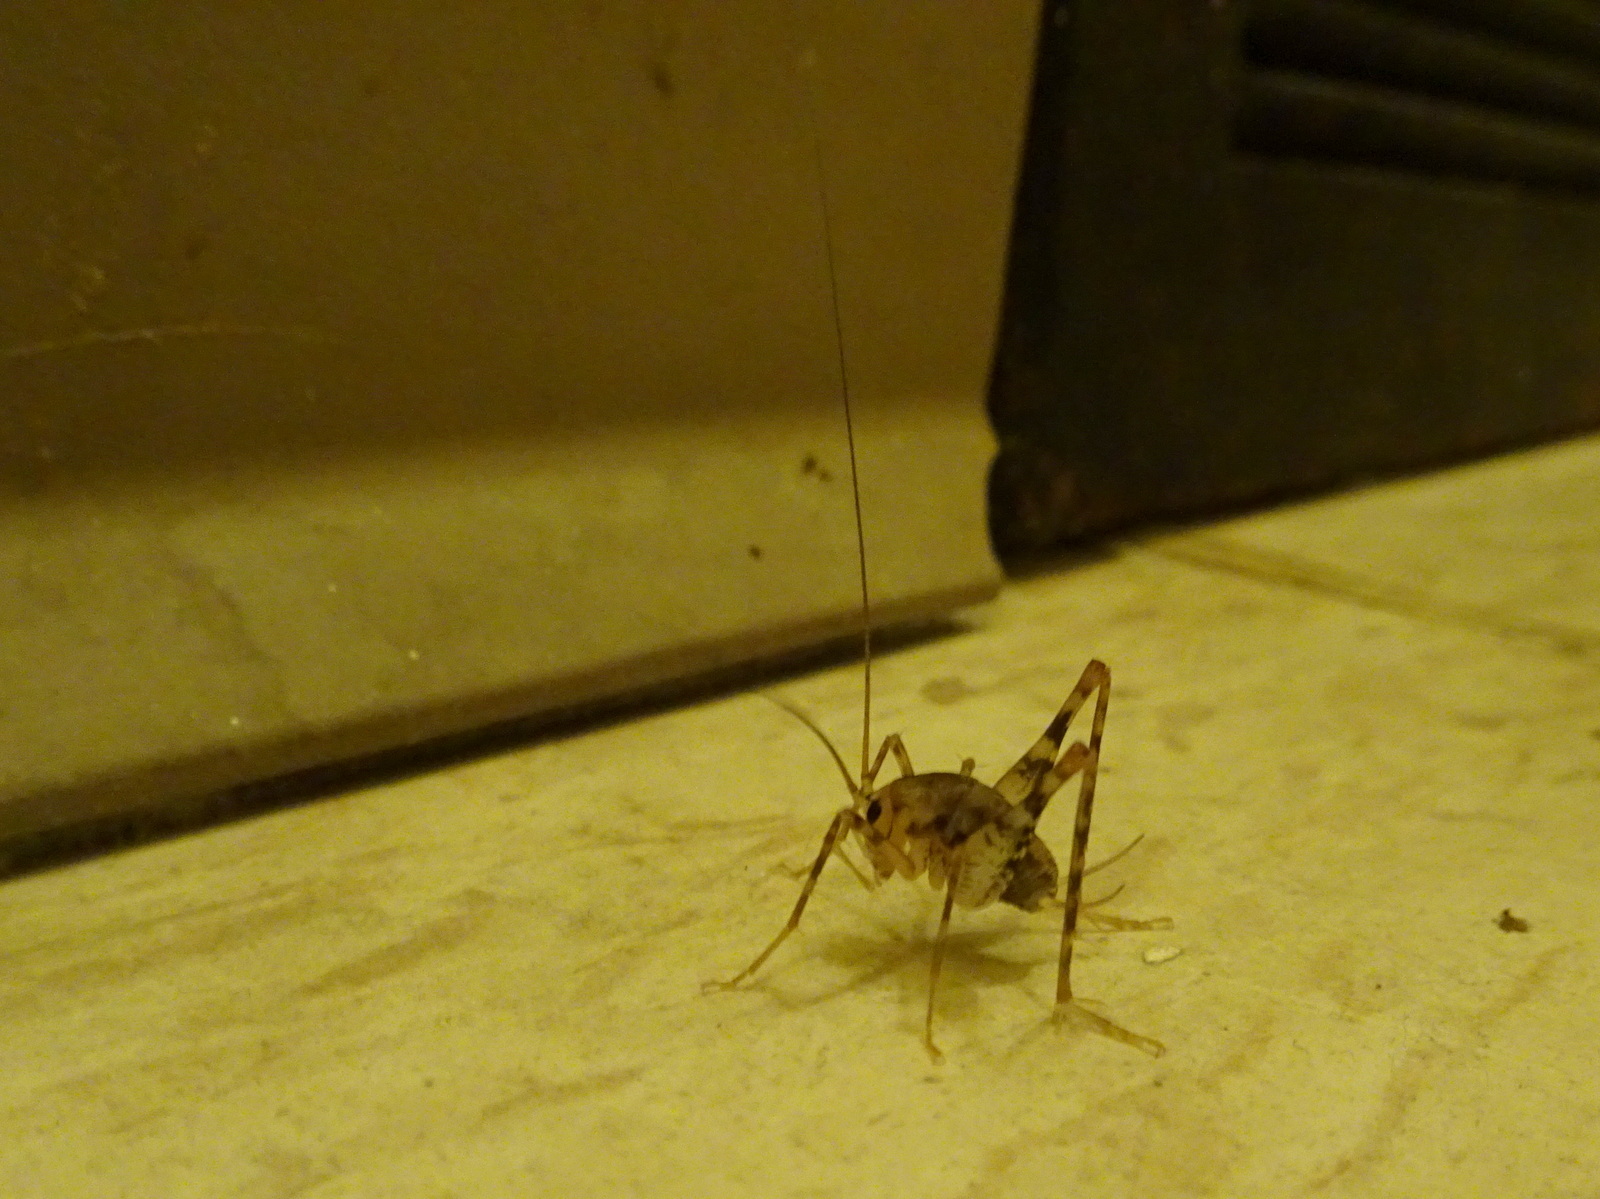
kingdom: Animalia
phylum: Arthropoda
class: Insecta
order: Orthoptera
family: Rhaphidophoridae
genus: Tachycines
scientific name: Tachycines asynamorus
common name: Greenhouse camel cricket
